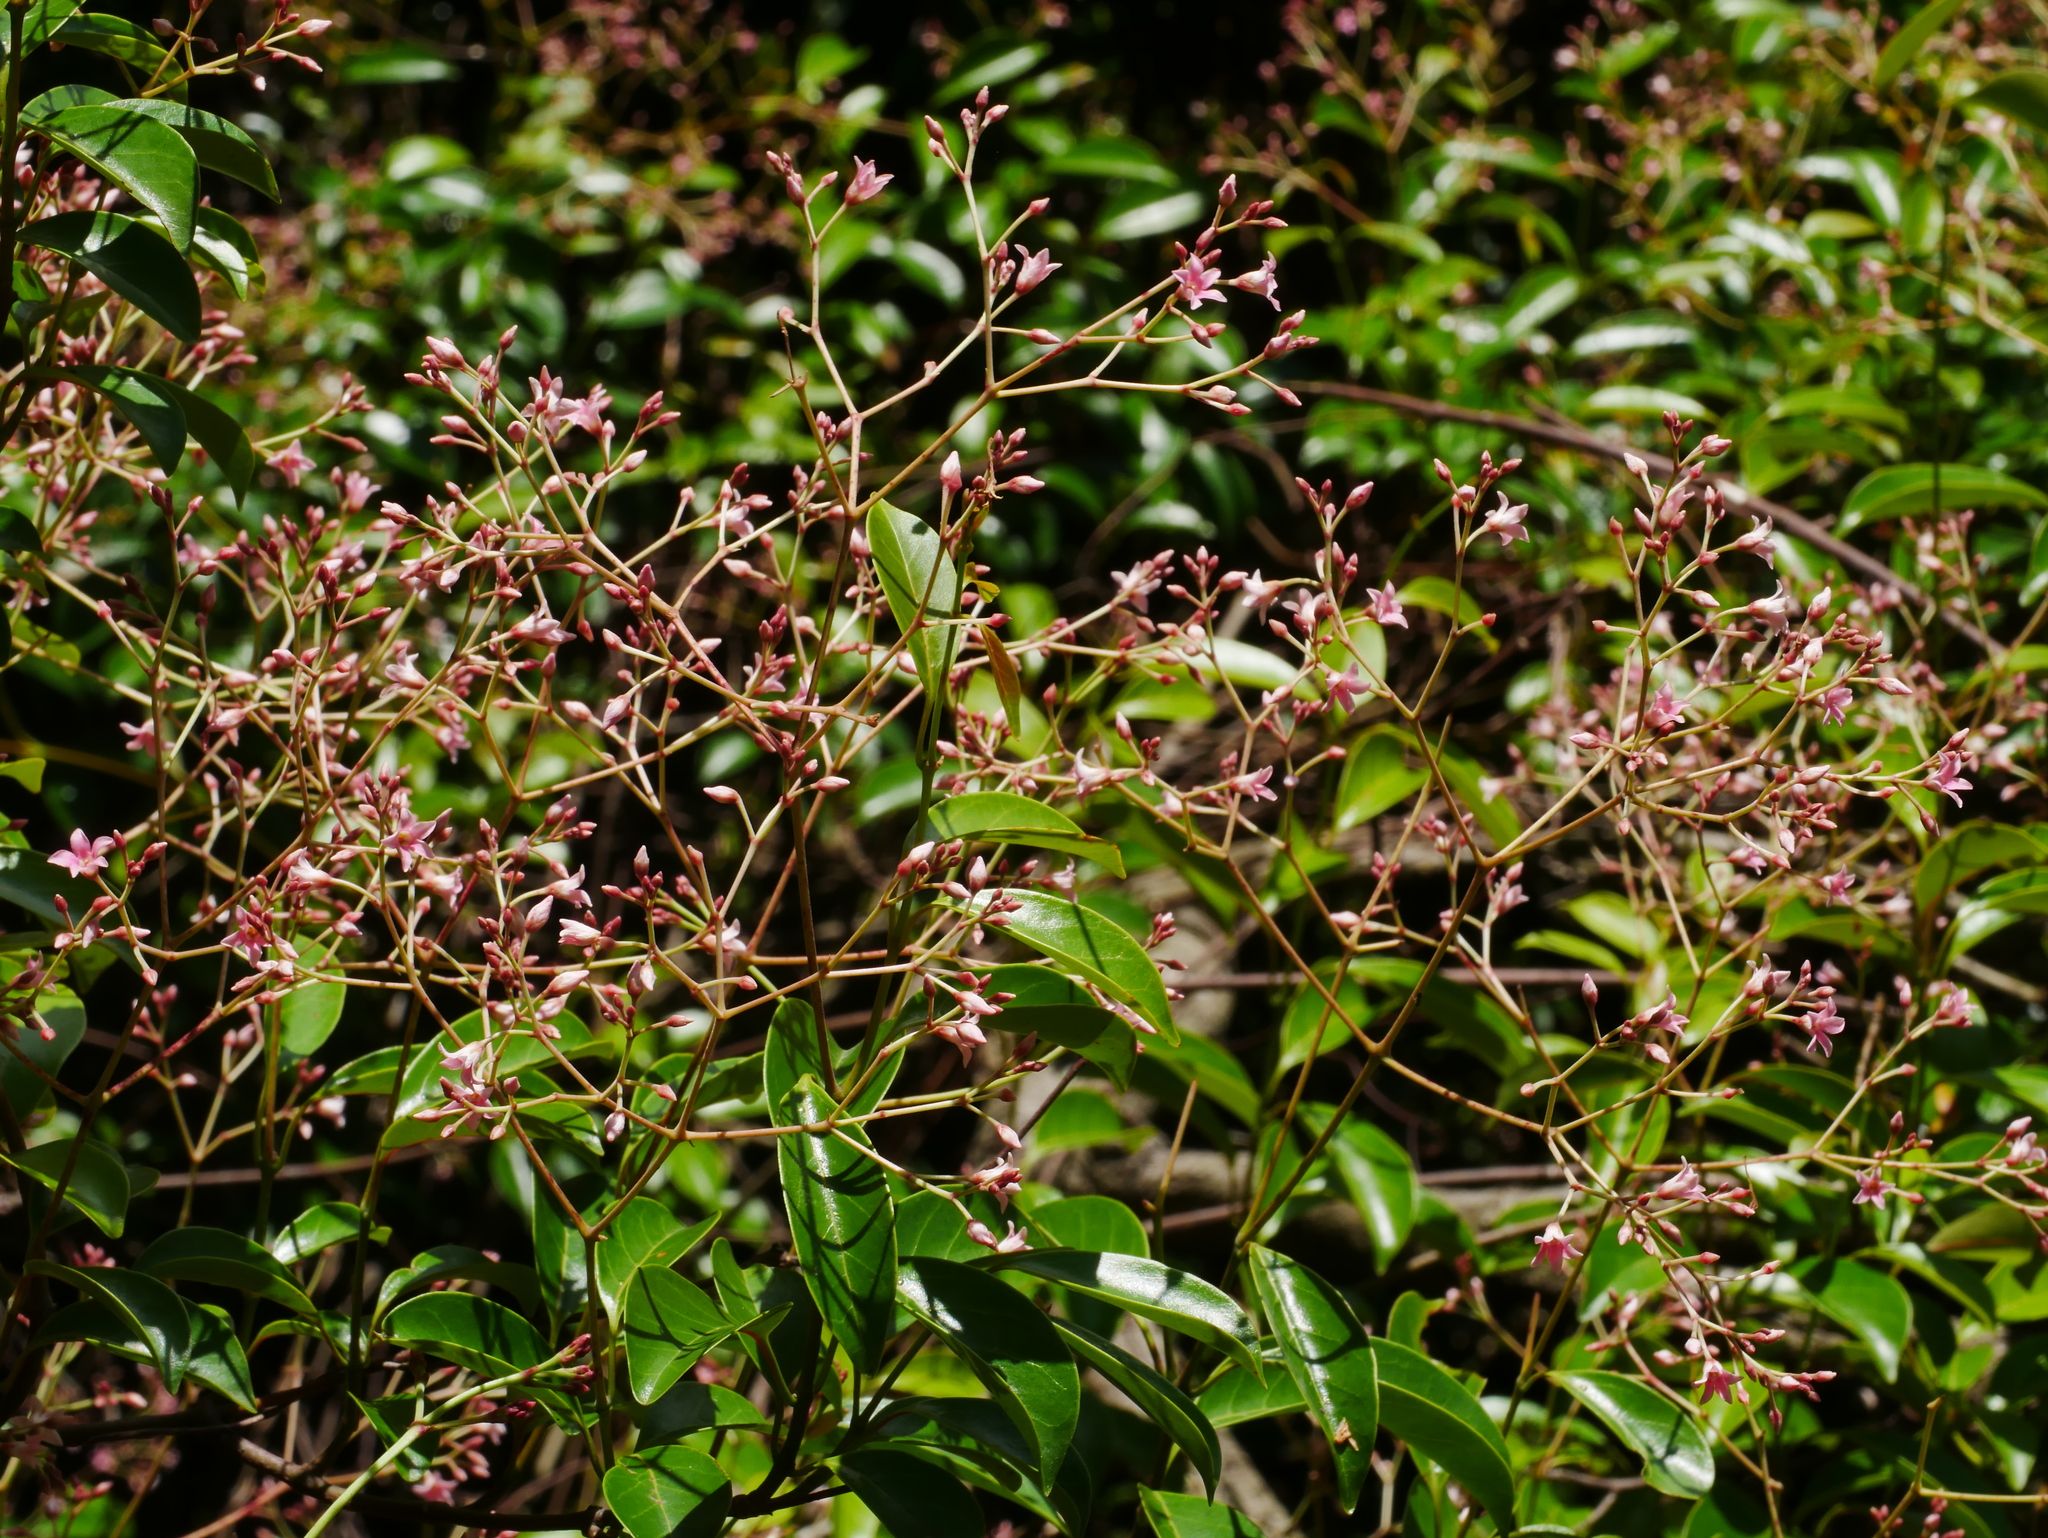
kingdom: Plantae
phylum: Tracheophyta
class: Magnoliopsida
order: Gentianales
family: Apocynaceae
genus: Urceola
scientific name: Urceola rosea
